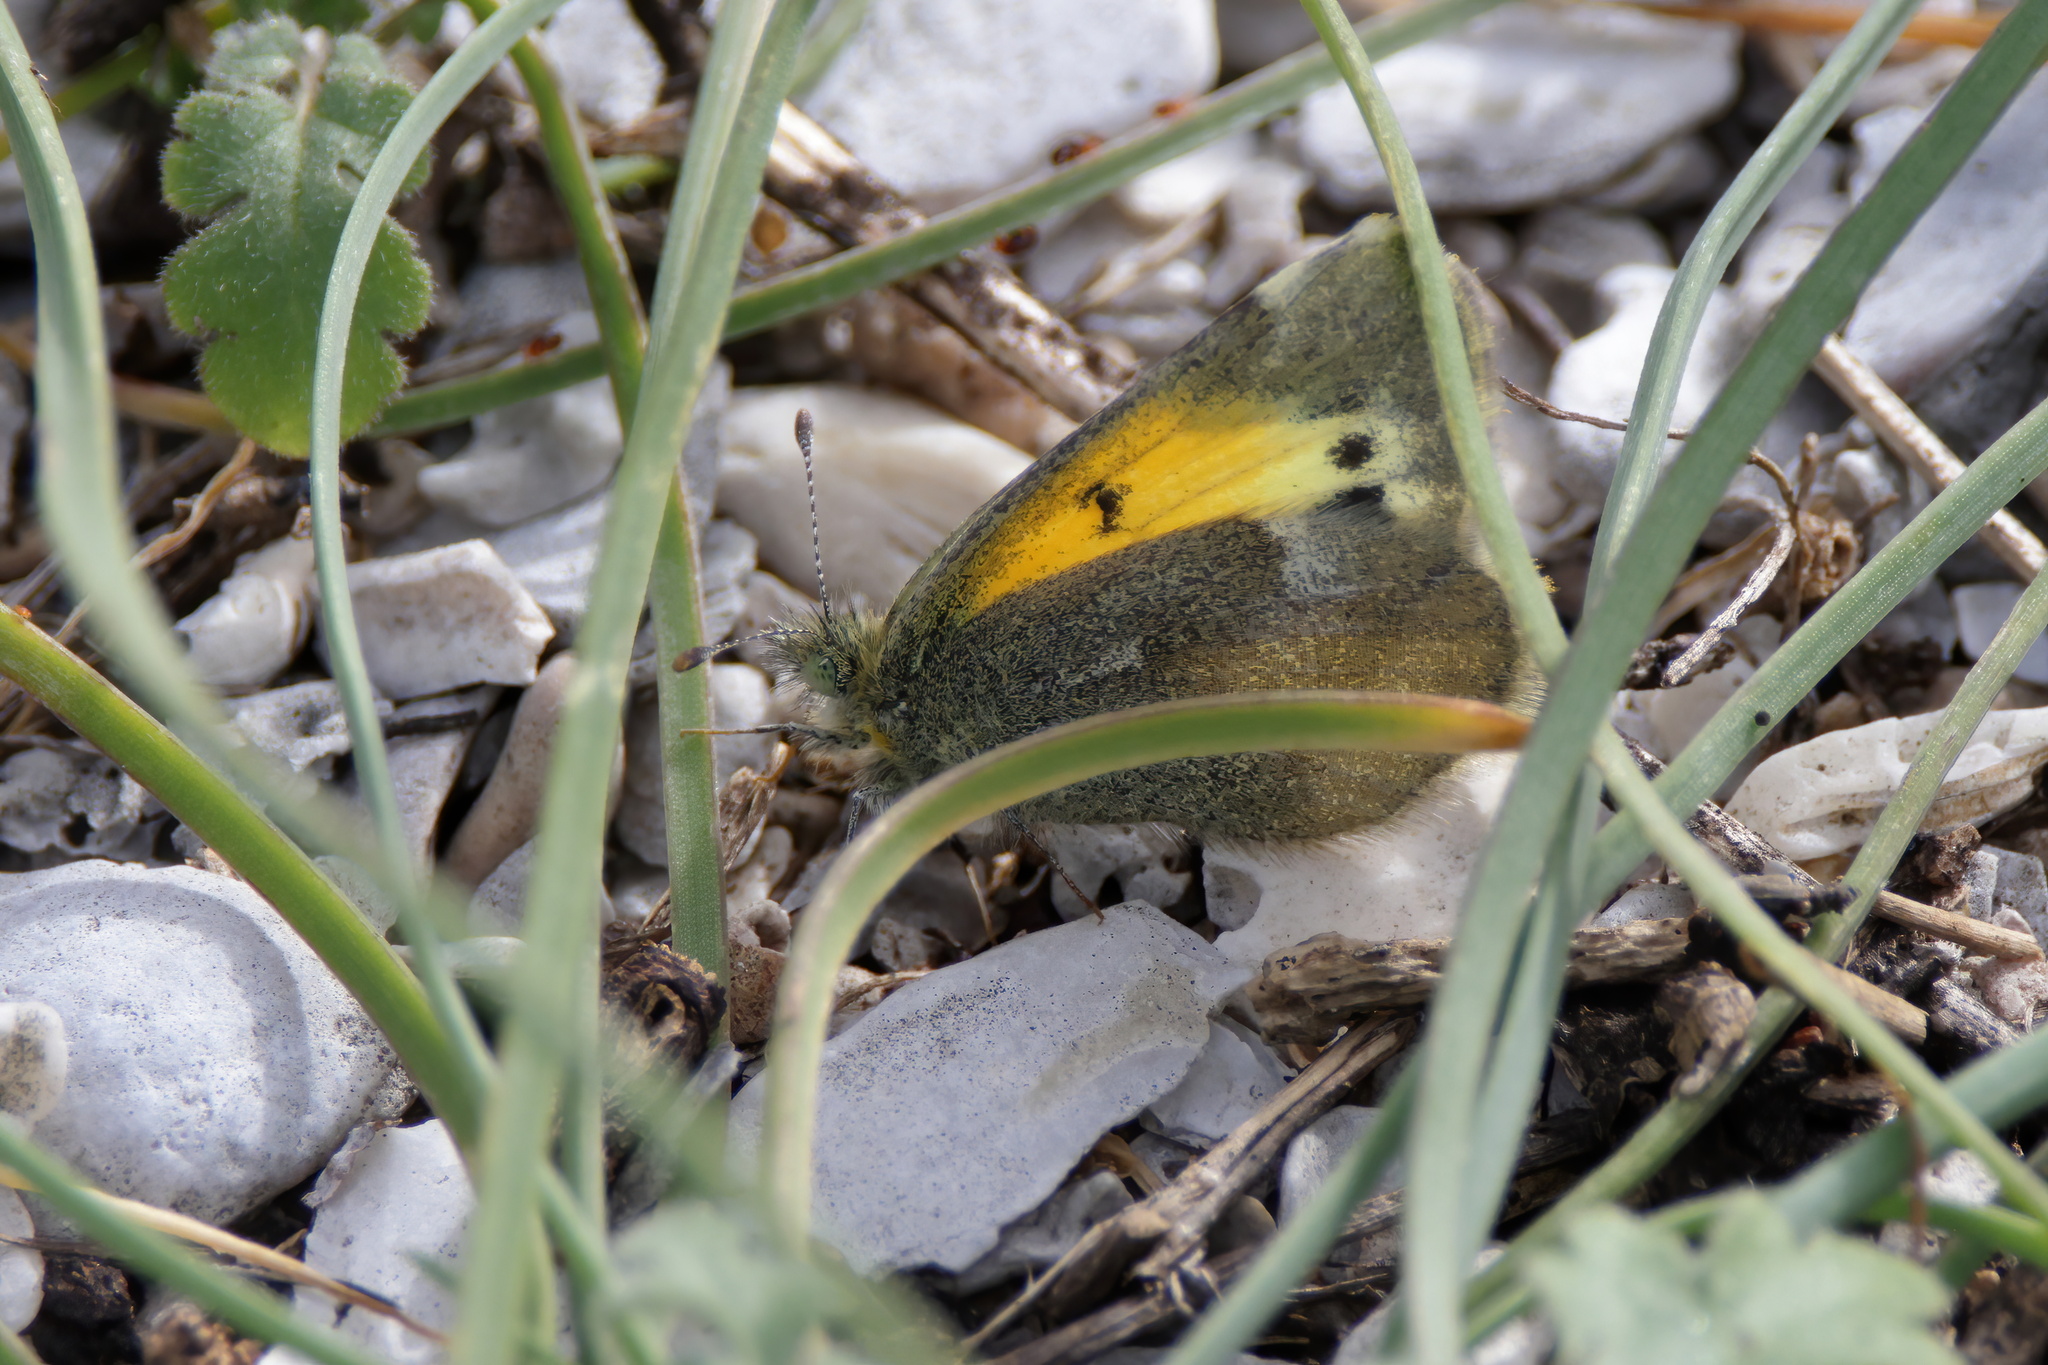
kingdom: Animalia
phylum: Arthropoda
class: Insecta
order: Lepidoptera
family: Pieridae
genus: Nathalis
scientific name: Nathalis iole
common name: Dainty sulphur
